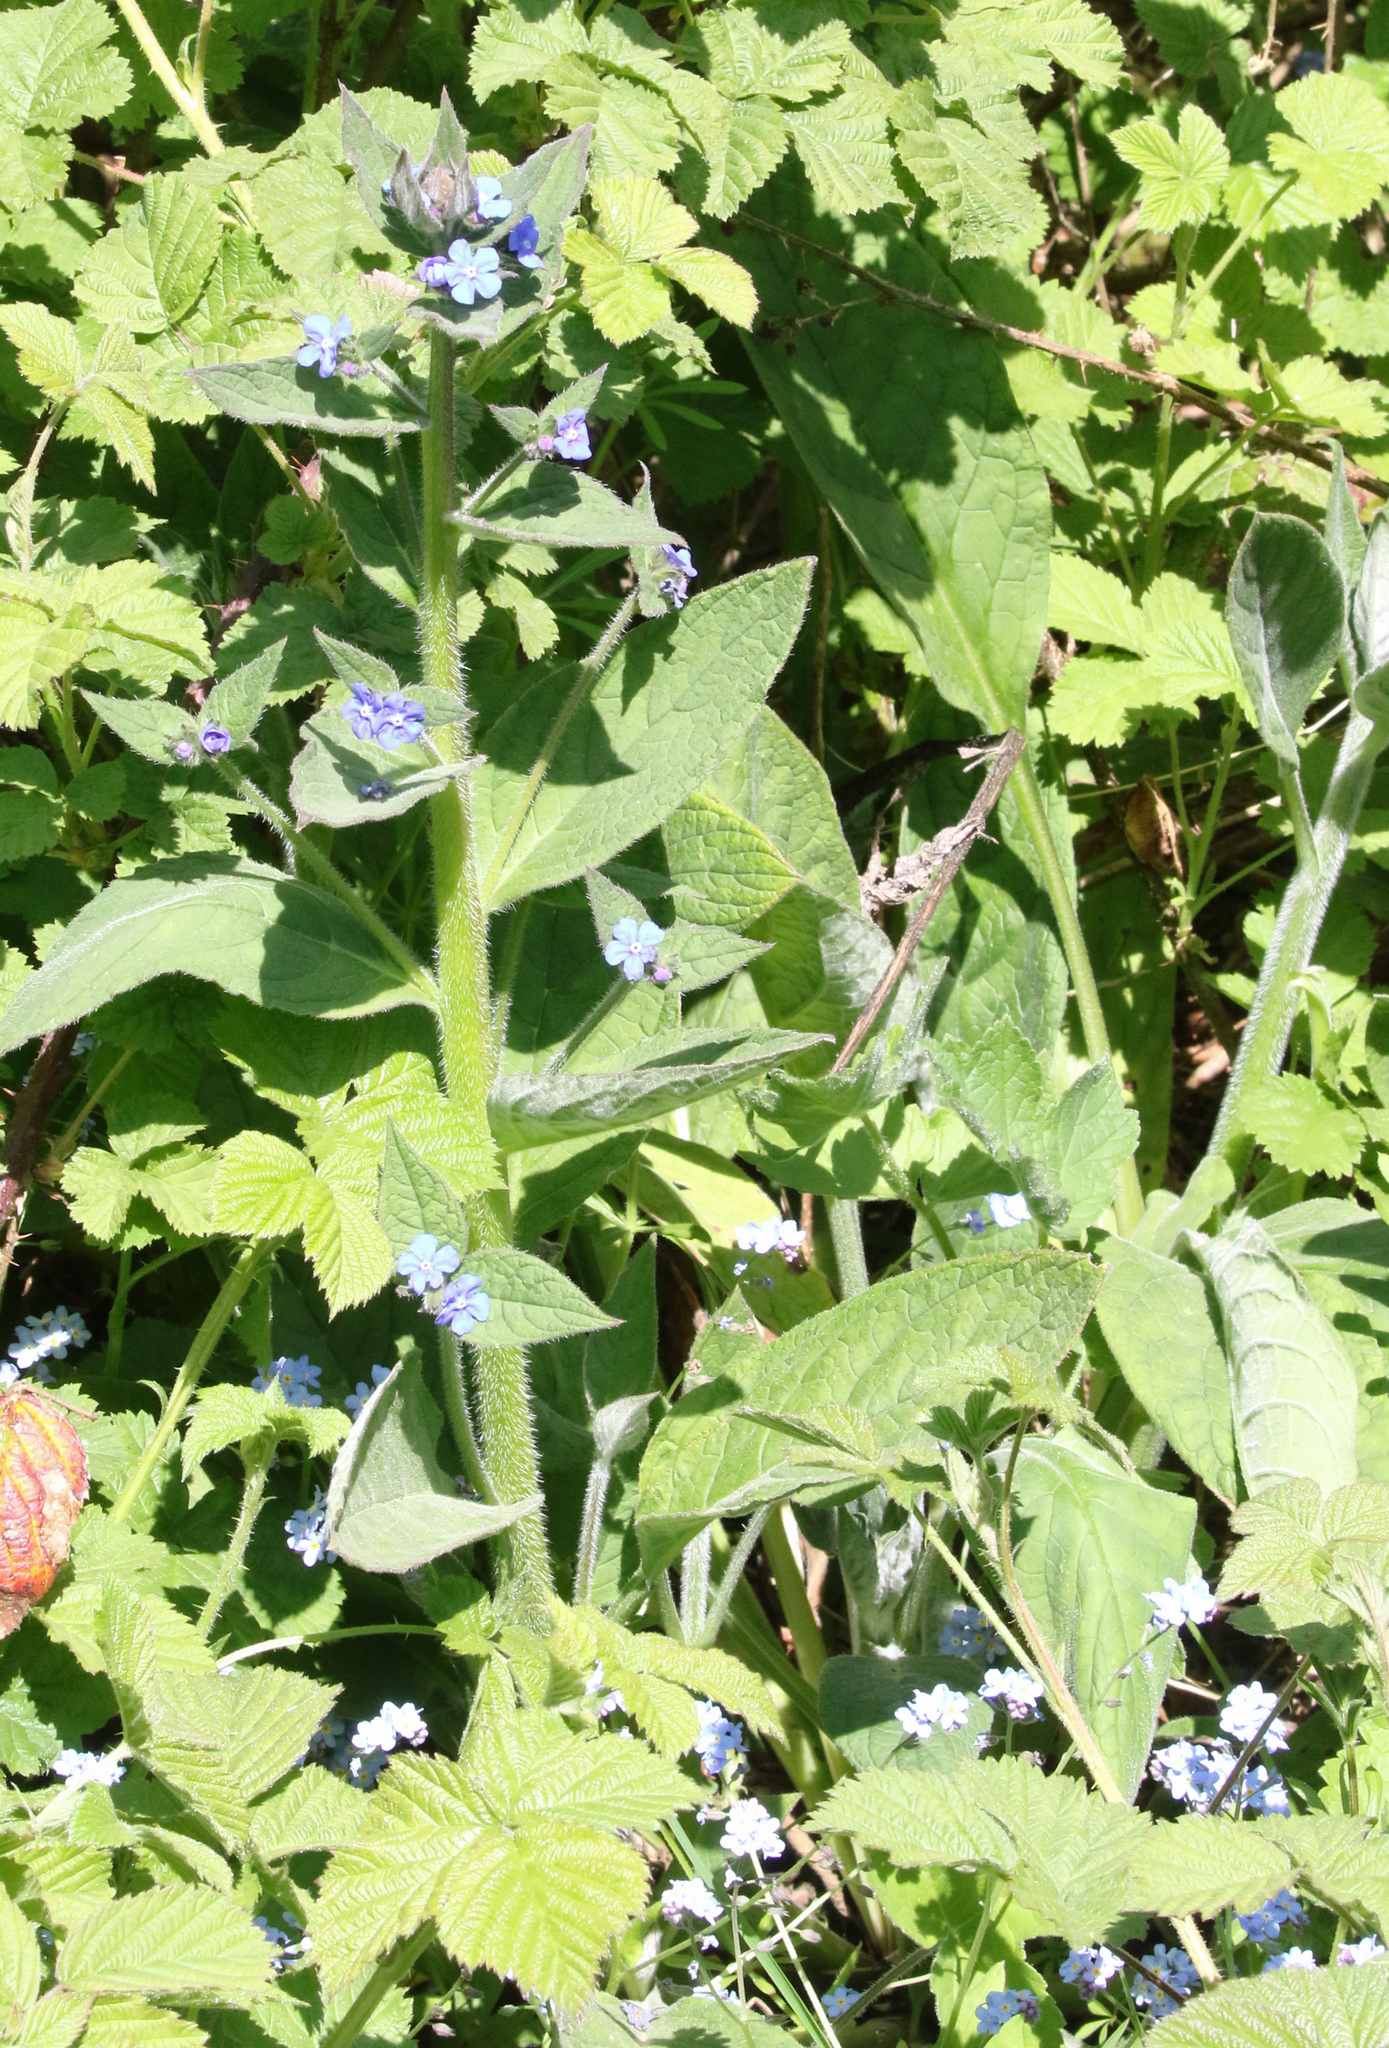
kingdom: Plantae
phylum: Tracheophyta
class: Magnoliopsida
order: Boraginales
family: Boraginaceae
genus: Pentaglottis
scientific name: Pentaglottis sempervirens
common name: Green alkanet
